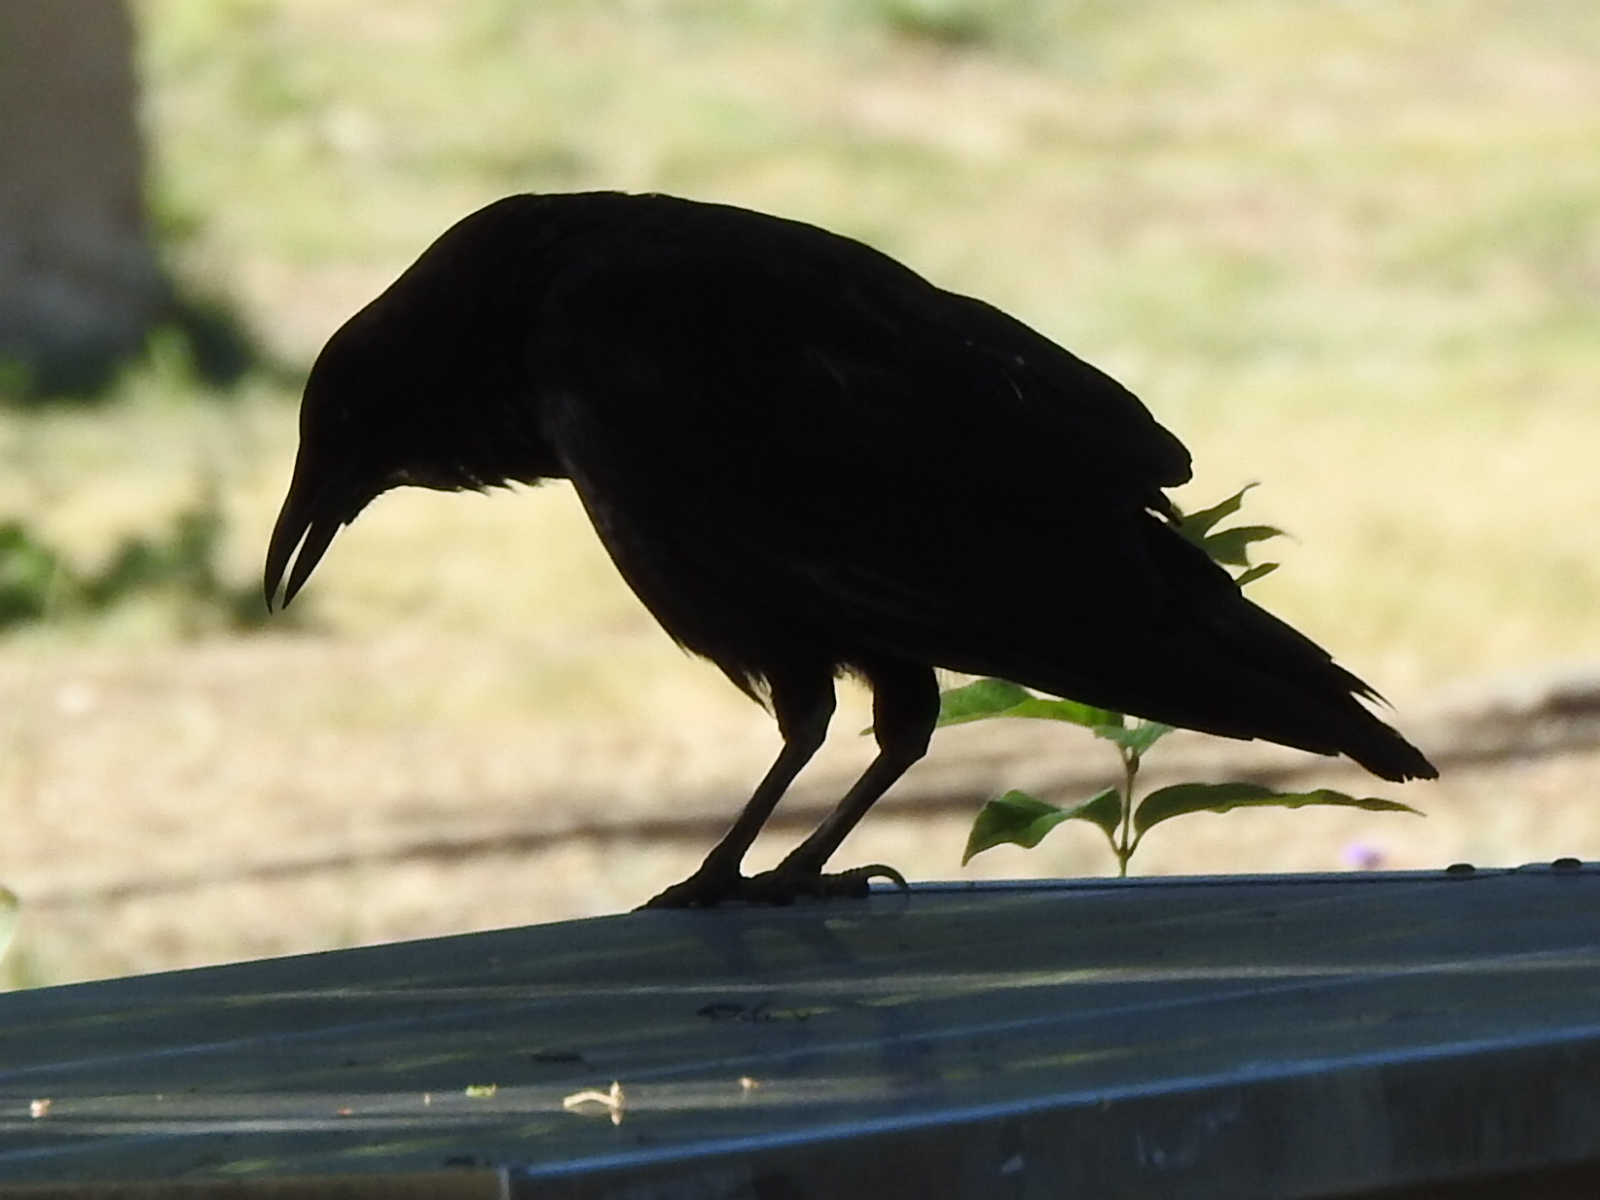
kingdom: Animalia
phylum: Chordata
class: Aves
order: Passeriformes
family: Corvidae
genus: Corvus
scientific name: Corvus brachyrhynchos
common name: American crow
